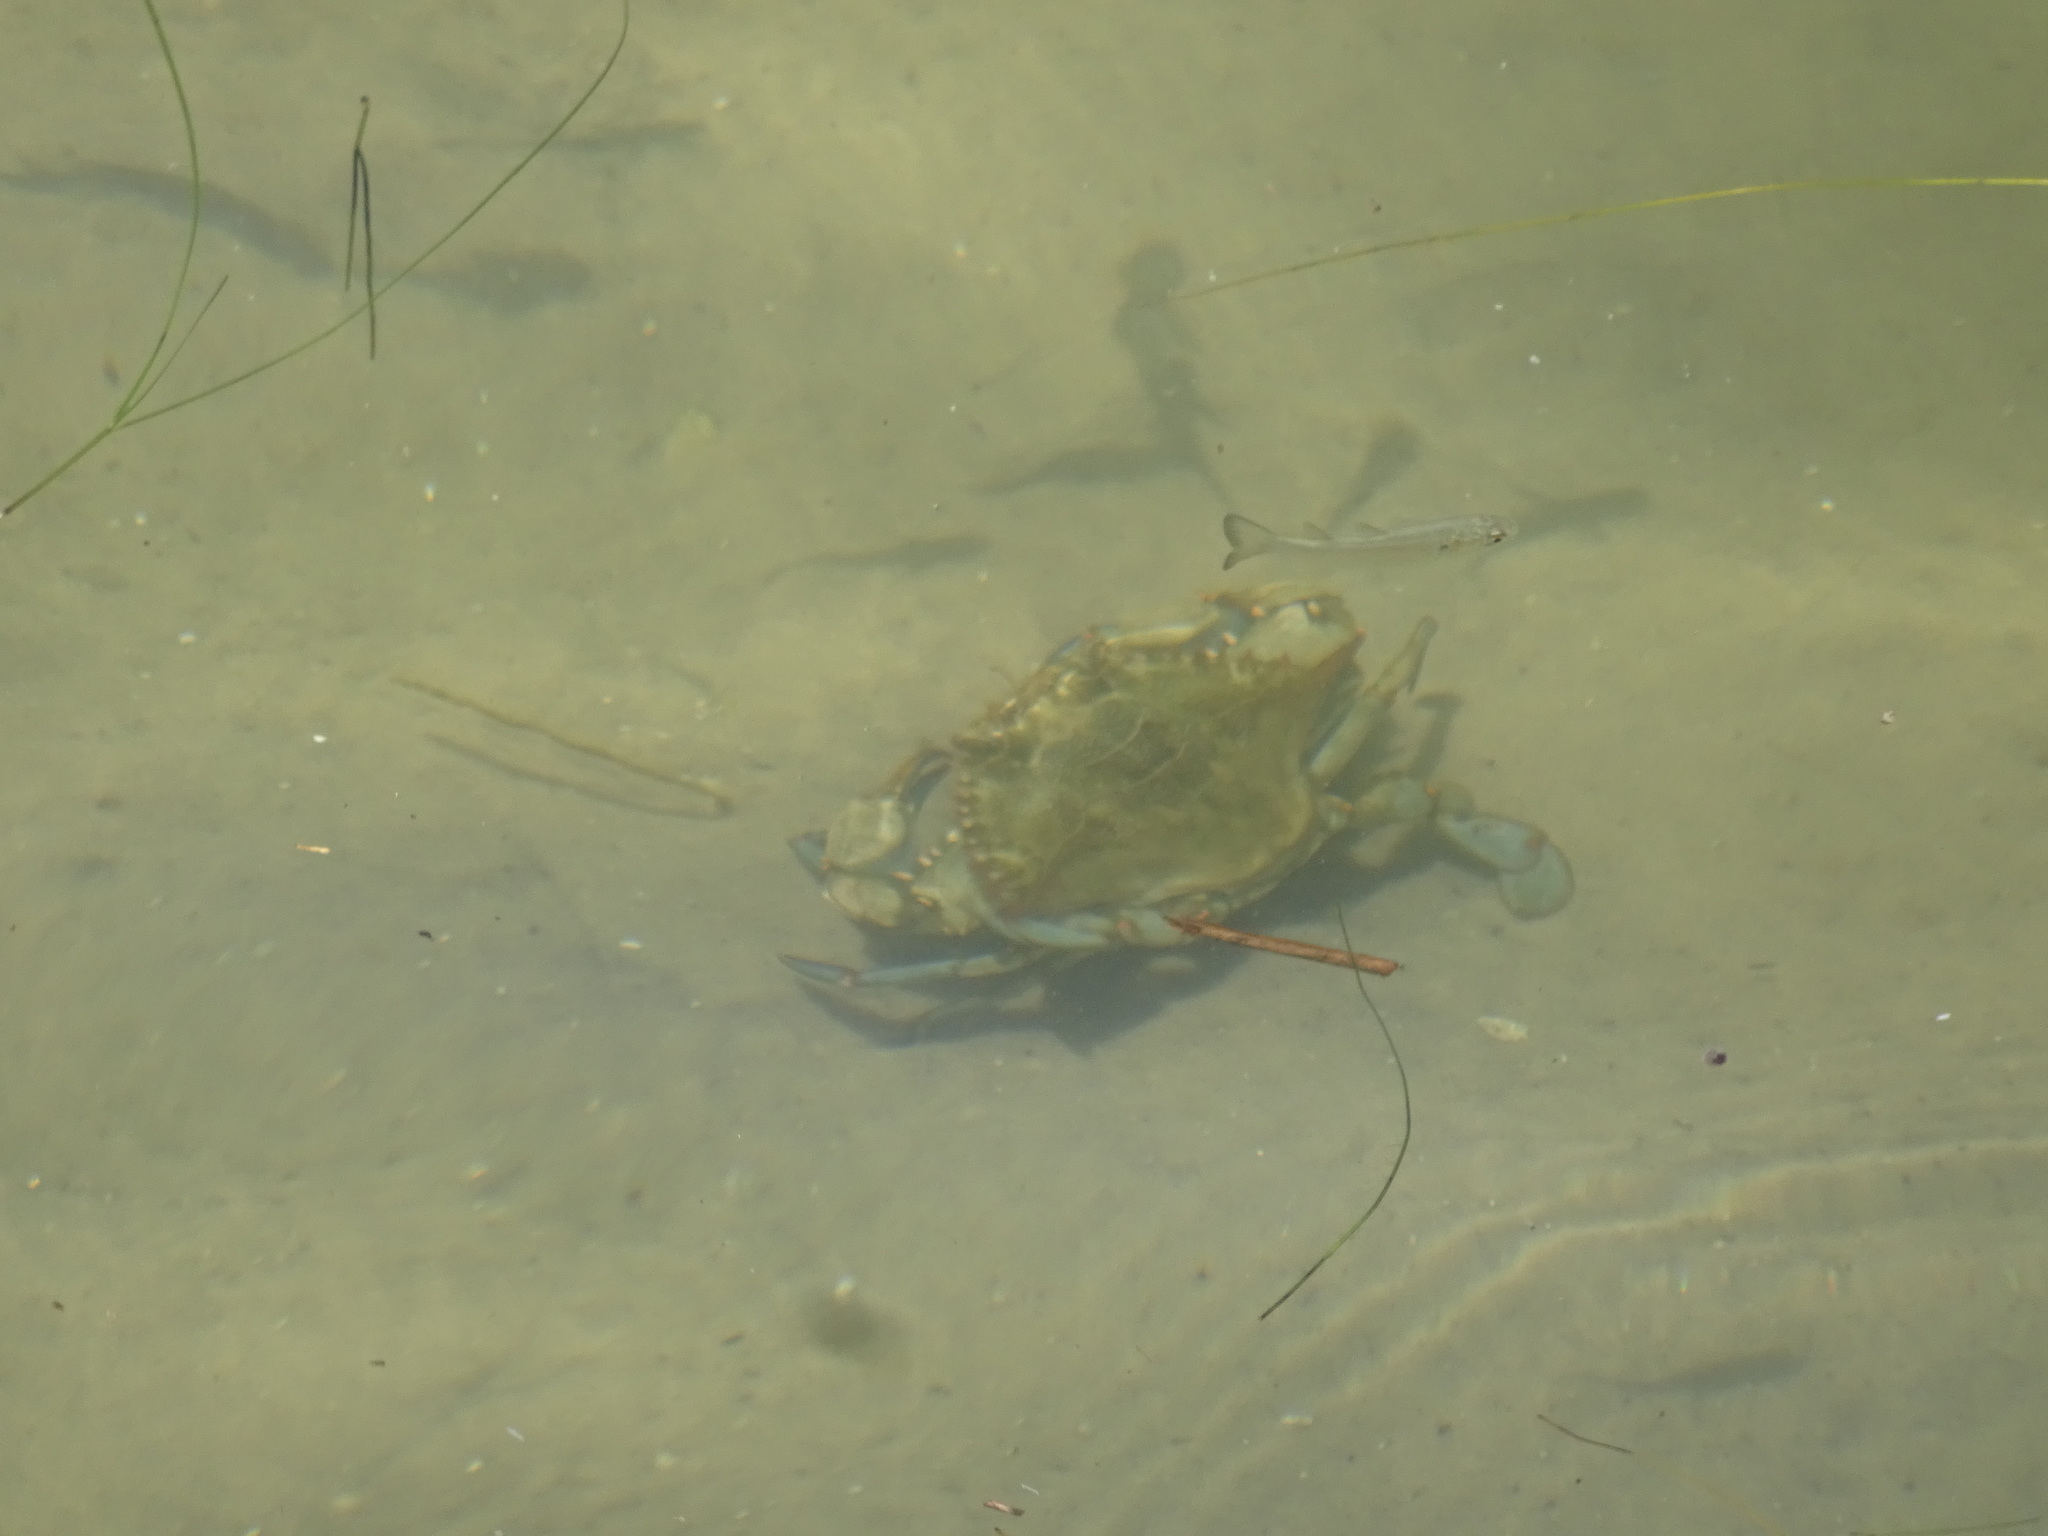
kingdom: Animalia
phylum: Arthropoda
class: Malacostraca
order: Decapoda
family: Portunidae
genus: Callinectes
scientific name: Callinectes sapidus
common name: Blue crab
